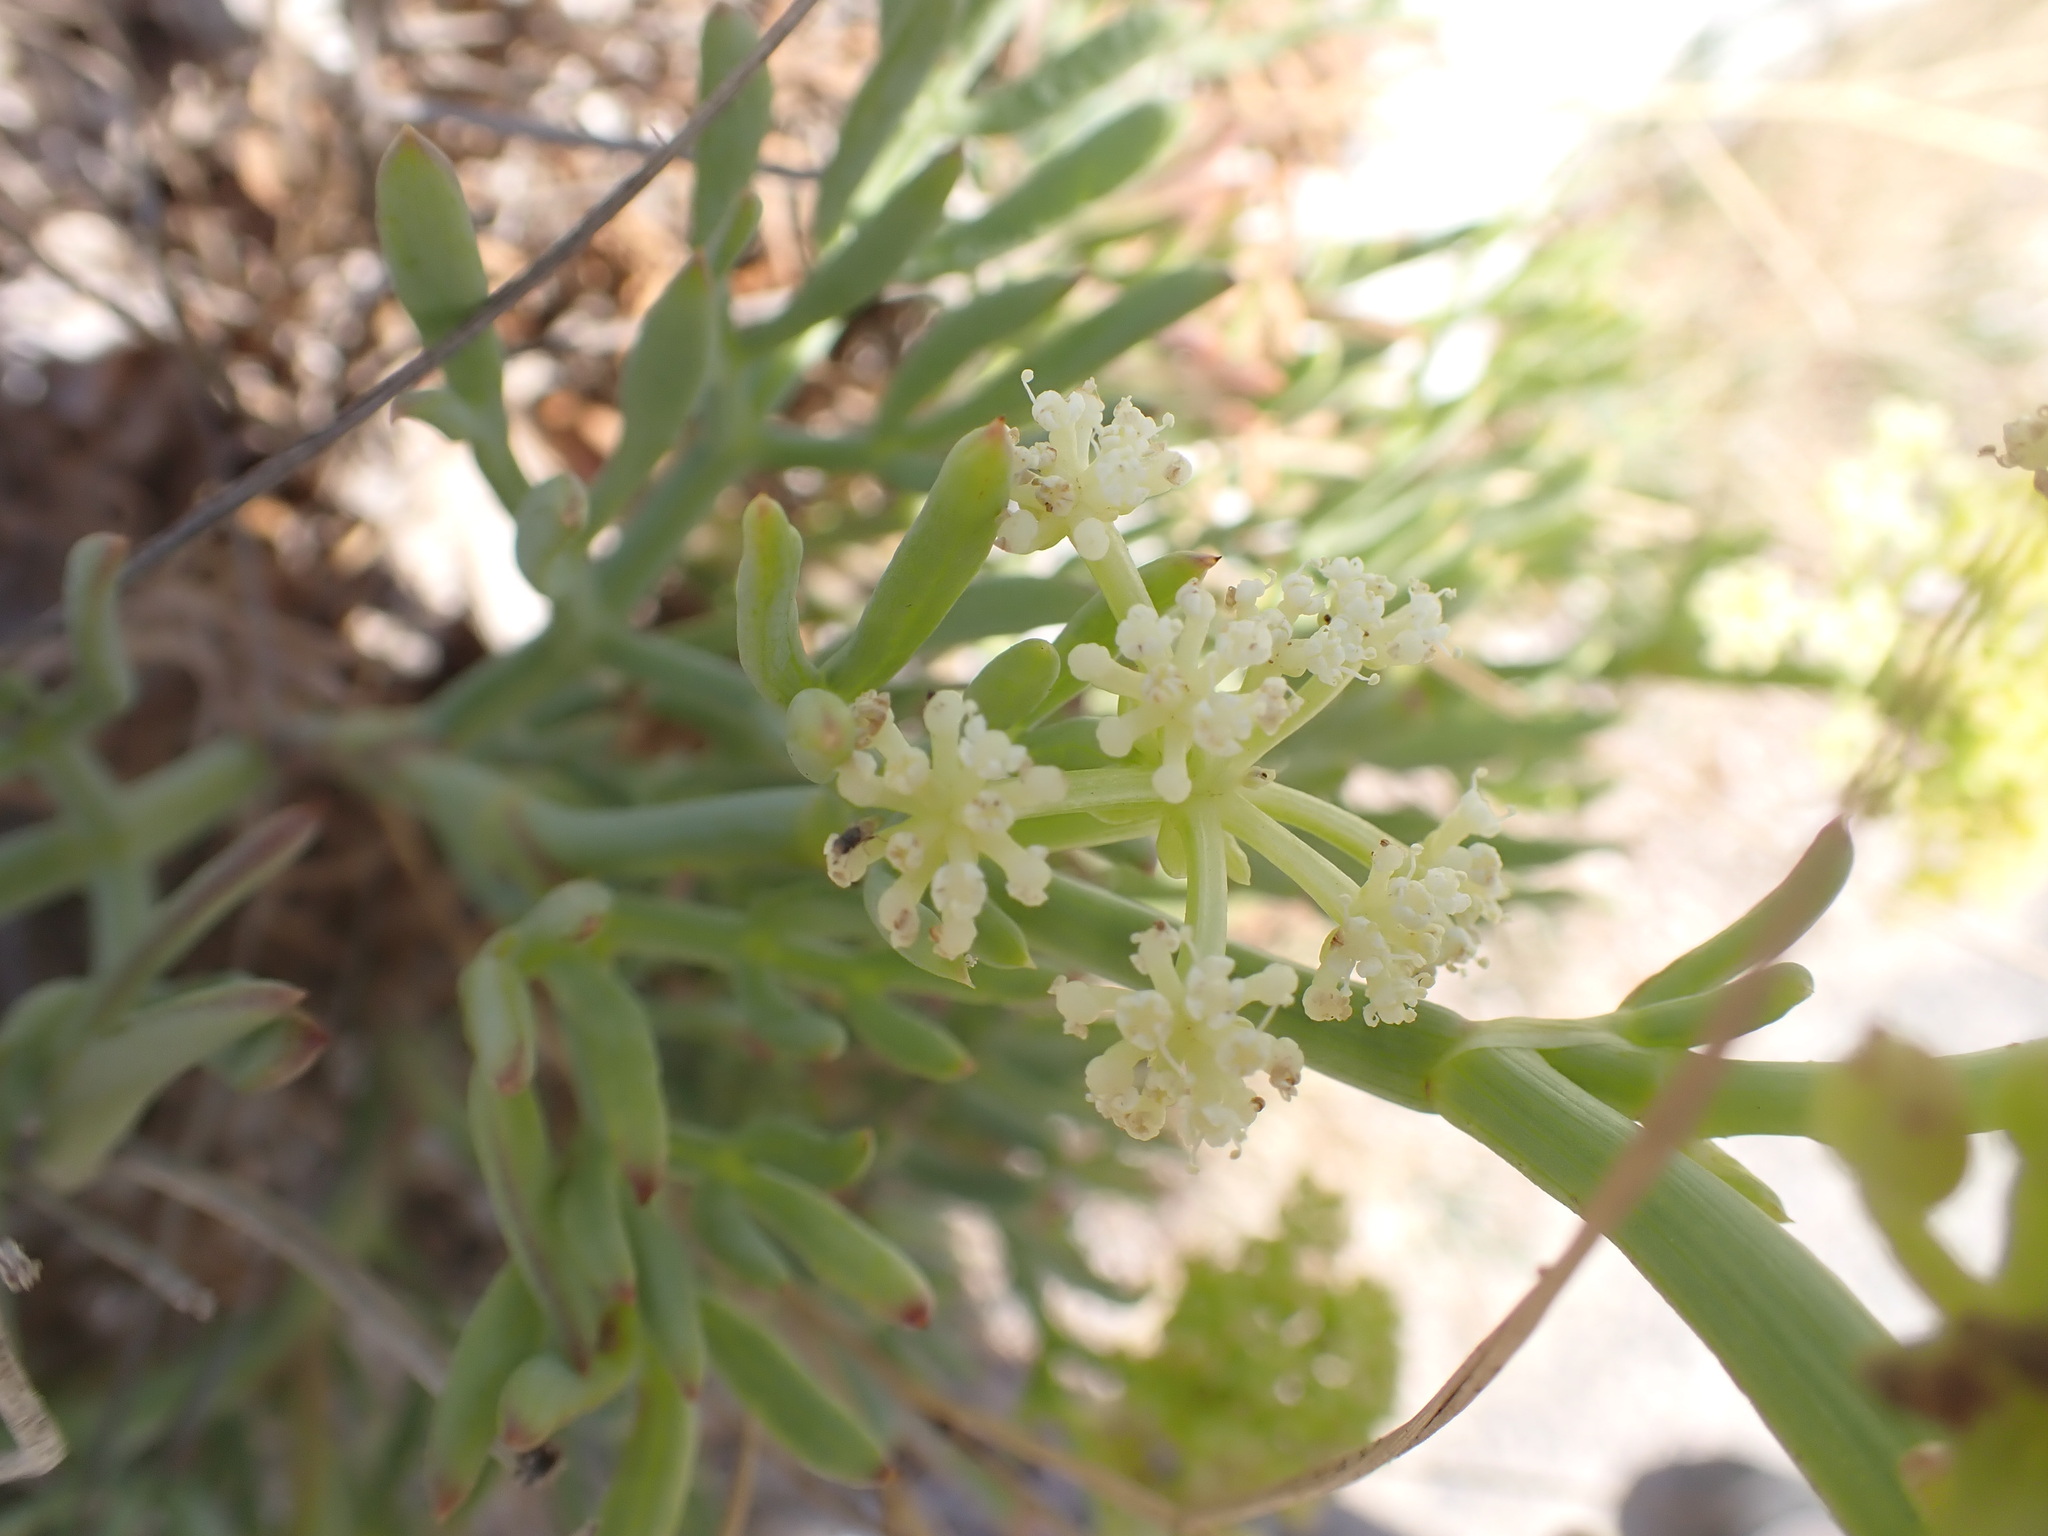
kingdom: Plantae
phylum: Tracheophyta
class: Magnoliopsida
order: Apiales
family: Apiaceae
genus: Crithmum
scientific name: Crithmum maritimum
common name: Rock samphire
